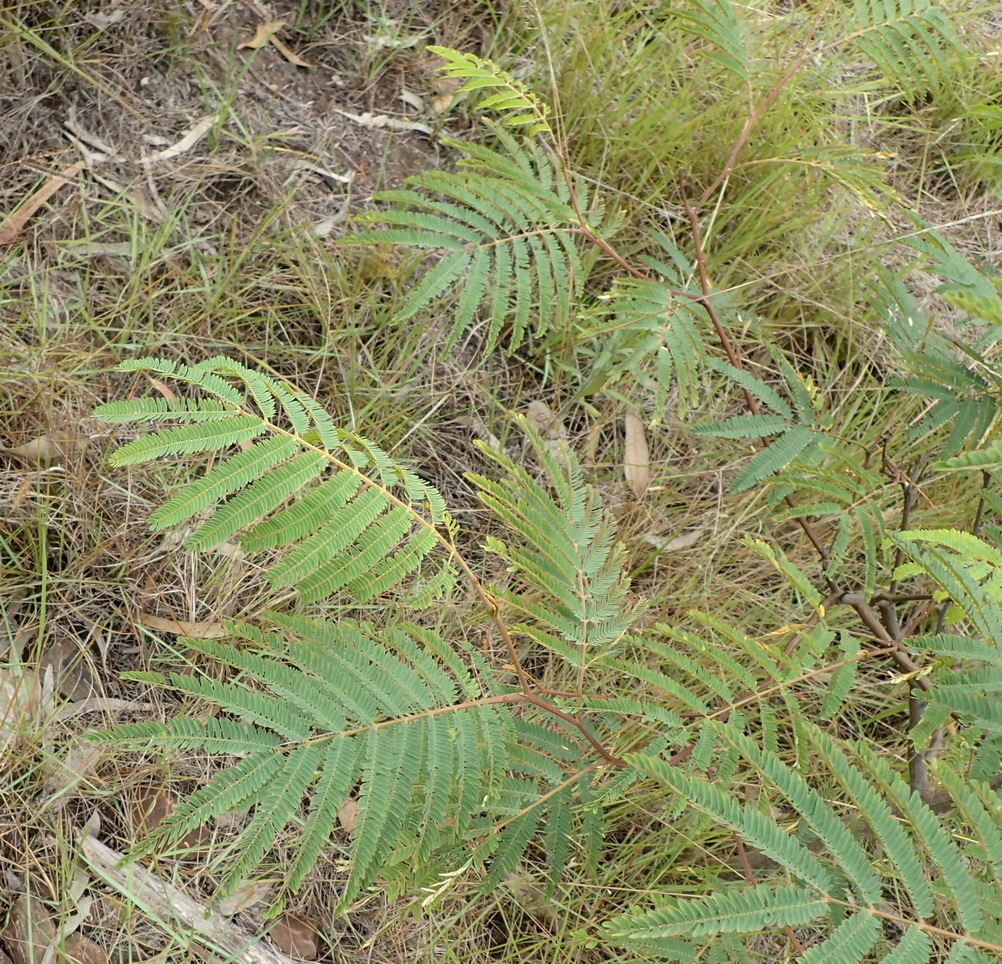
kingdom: Plantae
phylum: Tracheophyta
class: Magnoliopsida
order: Fabales
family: Fabaceae
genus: Paraserianthes
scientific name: Paraserianthes lophantha
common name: Plume albizia
